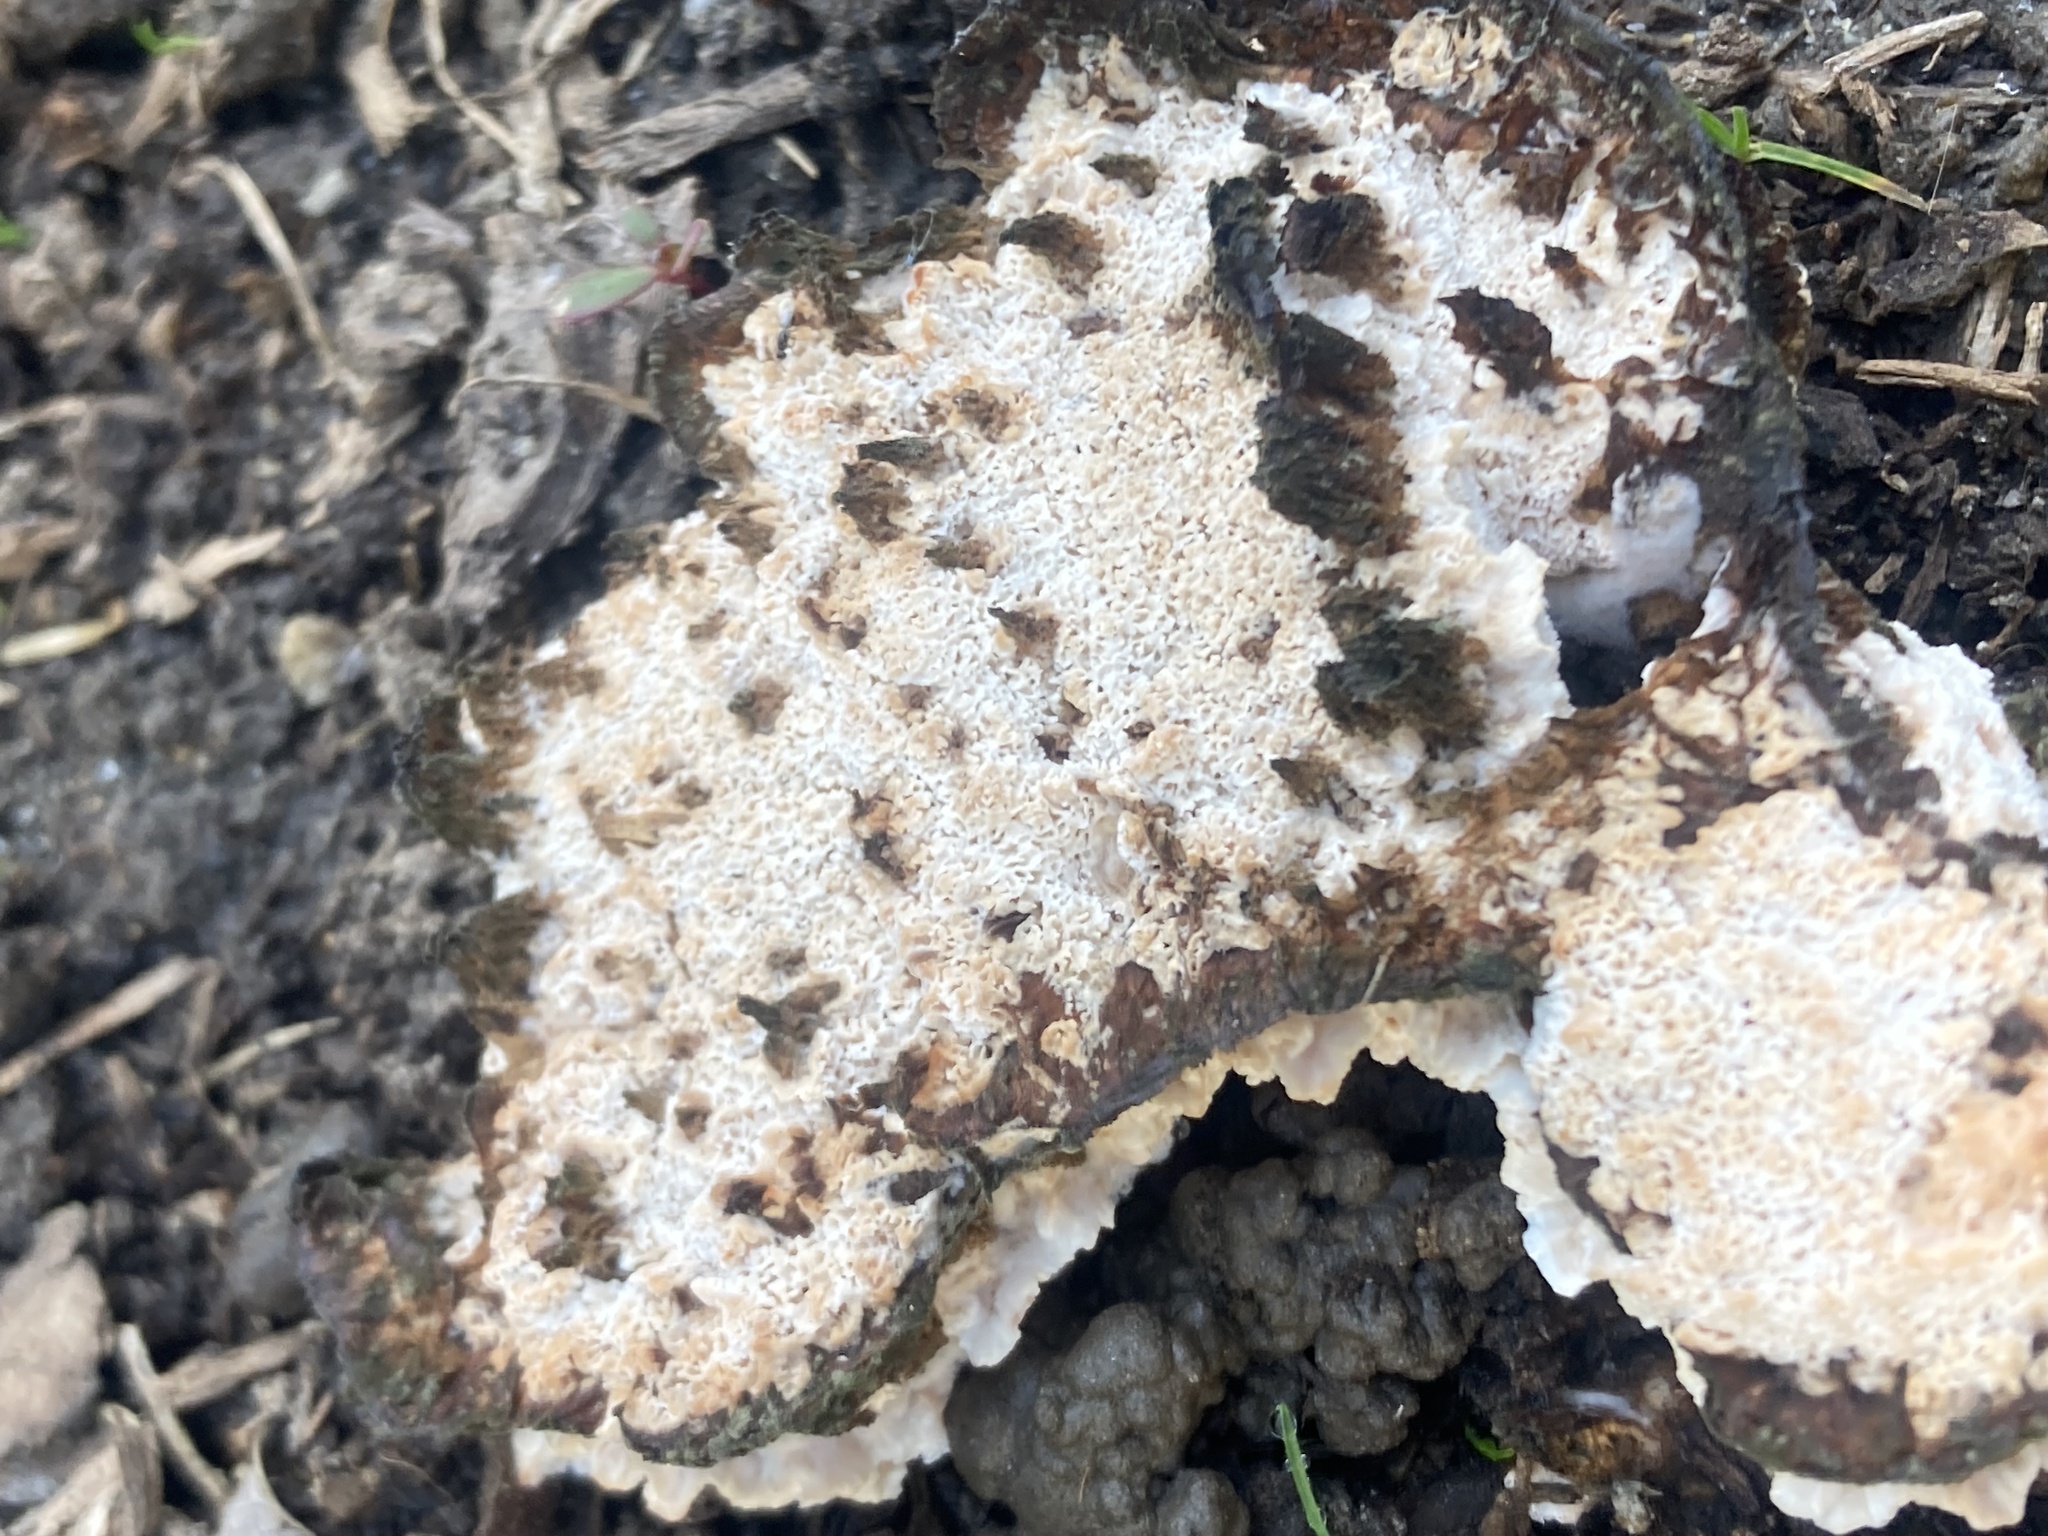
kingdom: Fungi
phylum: Basidiomycota
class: Agaricomycetes
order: Polyporales
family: Podoscyphaceae
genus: Abortiporus
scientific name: Abortiporus biennis
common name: Blushing rosette
